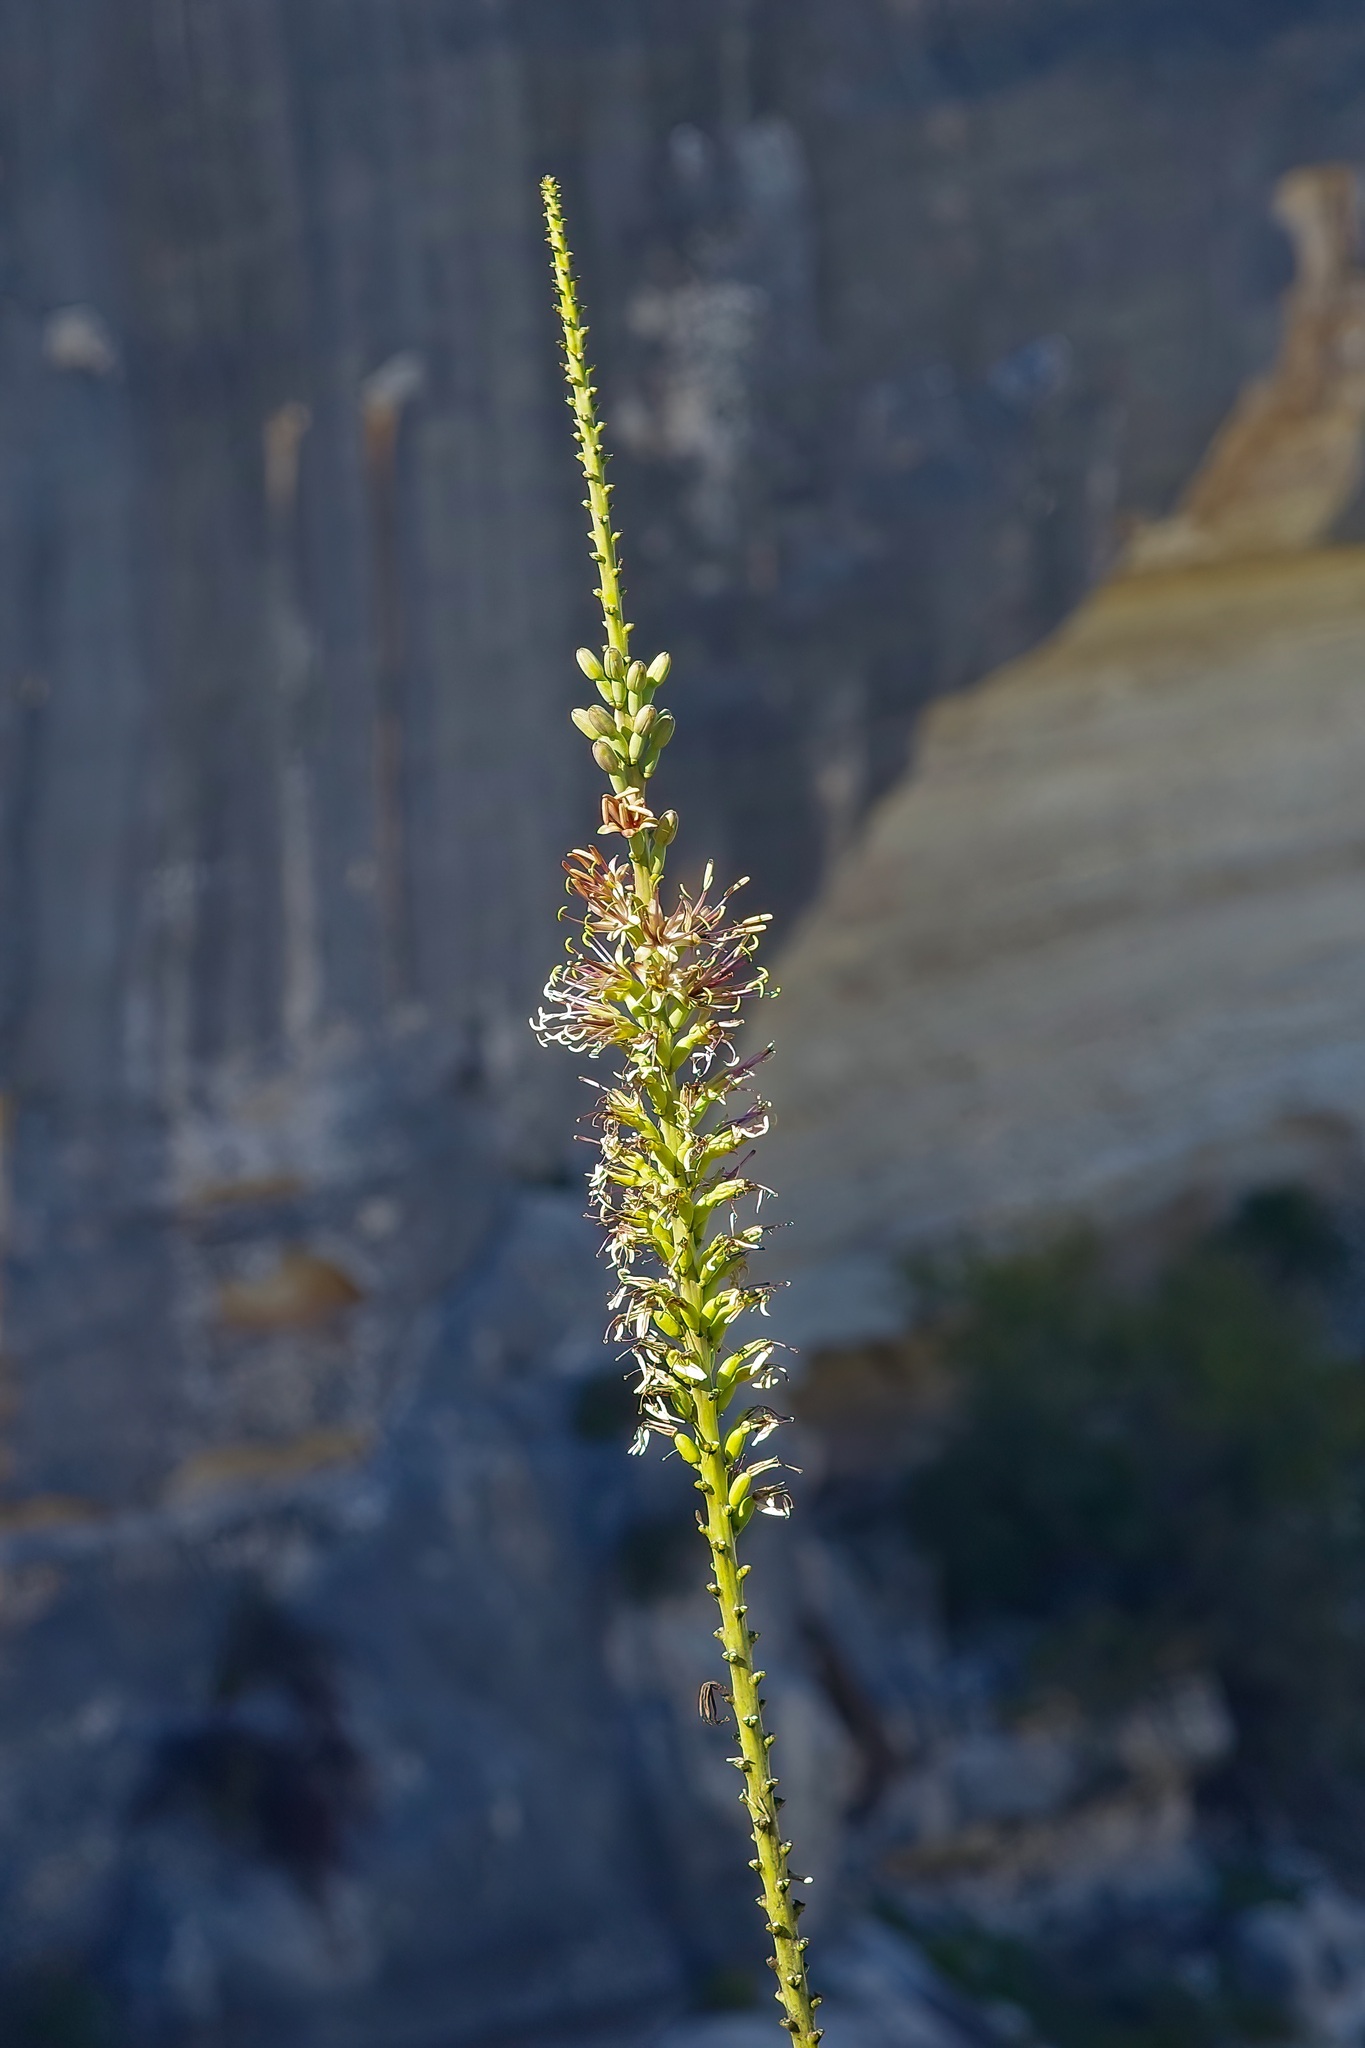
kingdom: Plantae
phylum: Tracheophyta
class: Liliopsida
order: Asparagales
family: Asparagaceae
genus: Agave
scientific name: Agave lechuguilla
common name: Lecheguilla agave
